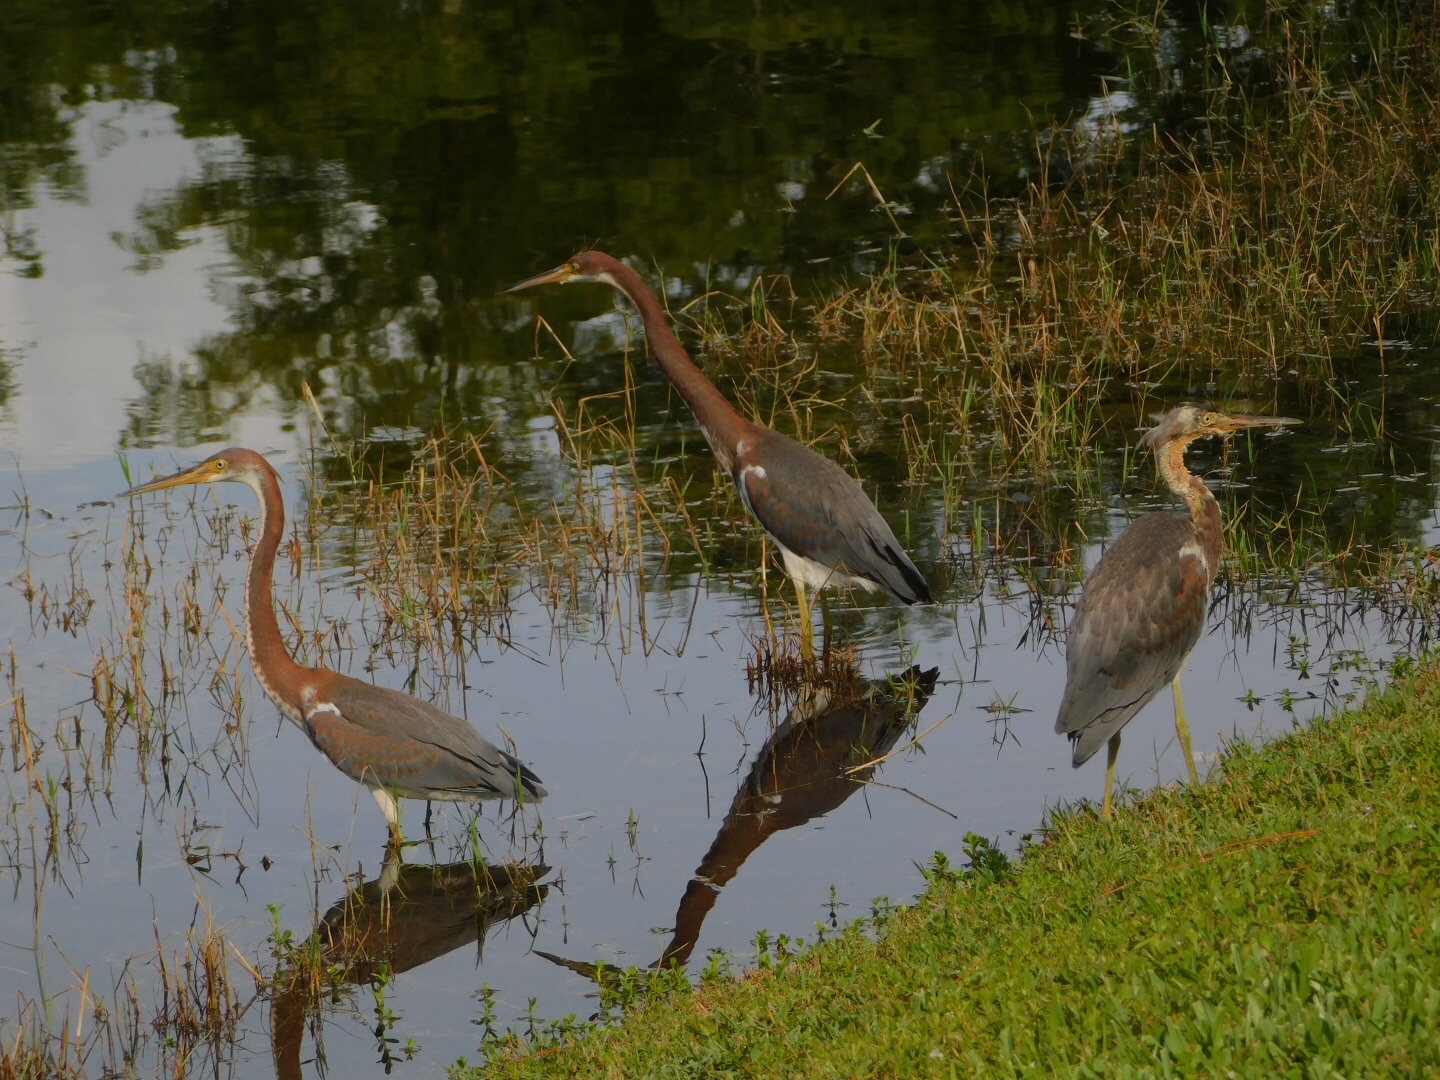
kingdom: Animalia
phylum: Chordata
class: Aves
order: Pelecaniformes
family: Ardeidae
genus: Egretta
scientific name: Egretta tricolor
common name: Tricolored heron
